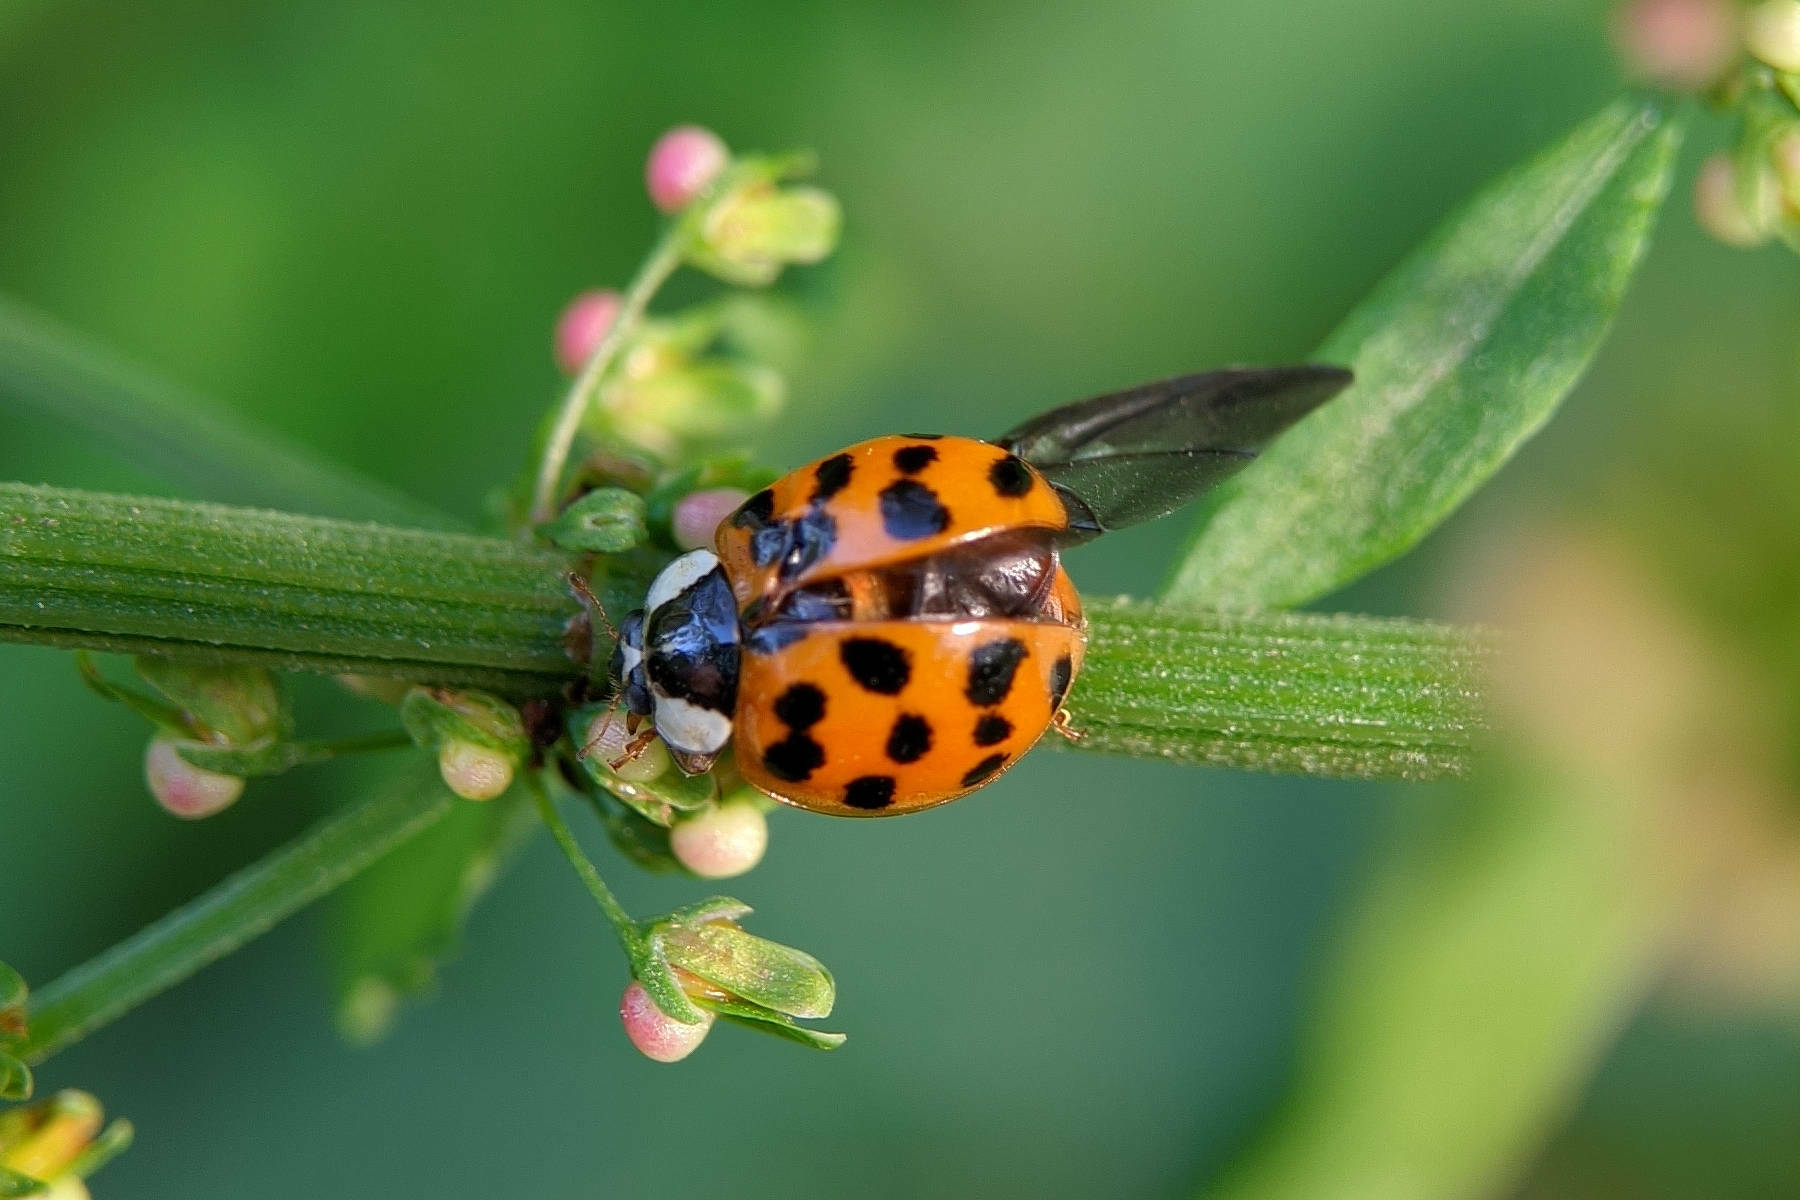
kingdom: Animalia
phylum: Arthropoda
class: Insecta
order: Coleoptera
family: Coccinellidae
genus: Harmonia
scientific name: Harmonia axyridis
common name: Harlequin ladybird
